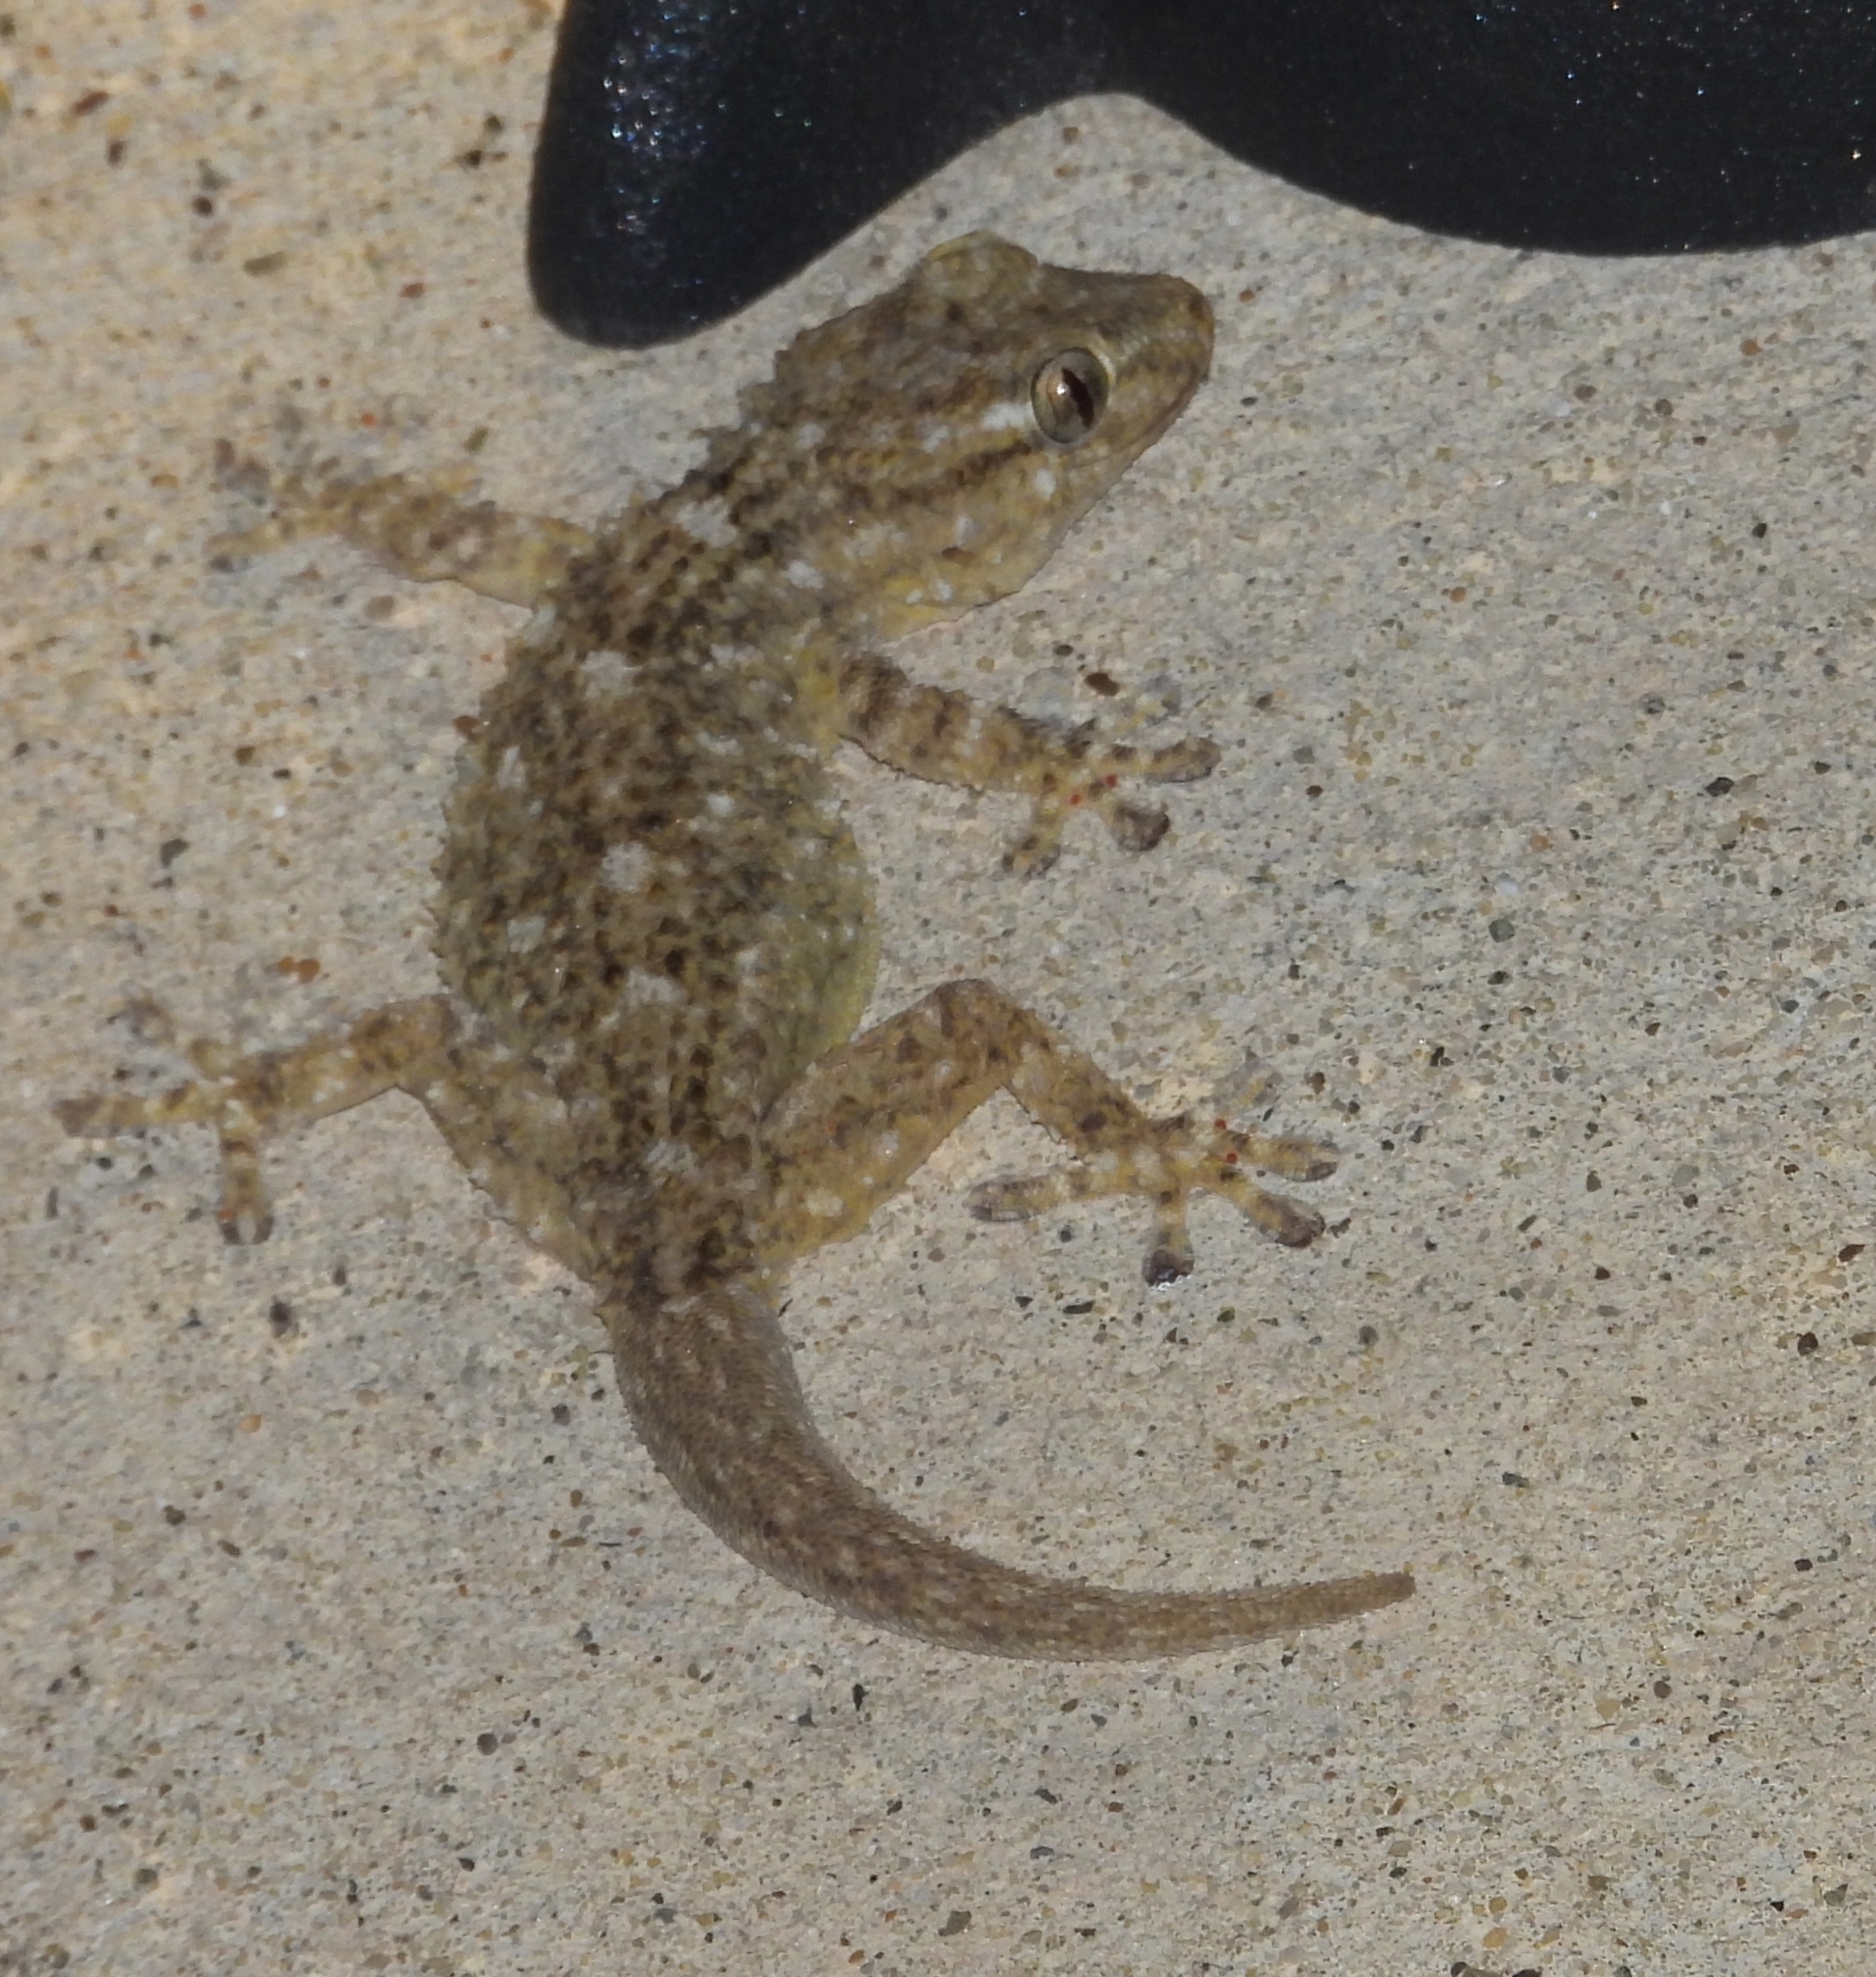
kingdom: Animalia
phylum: Chordata
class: Squamata
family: Phyllodactylidae
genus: Tarentola
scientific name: Tarentola mauritanica
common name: Moorish gecko
